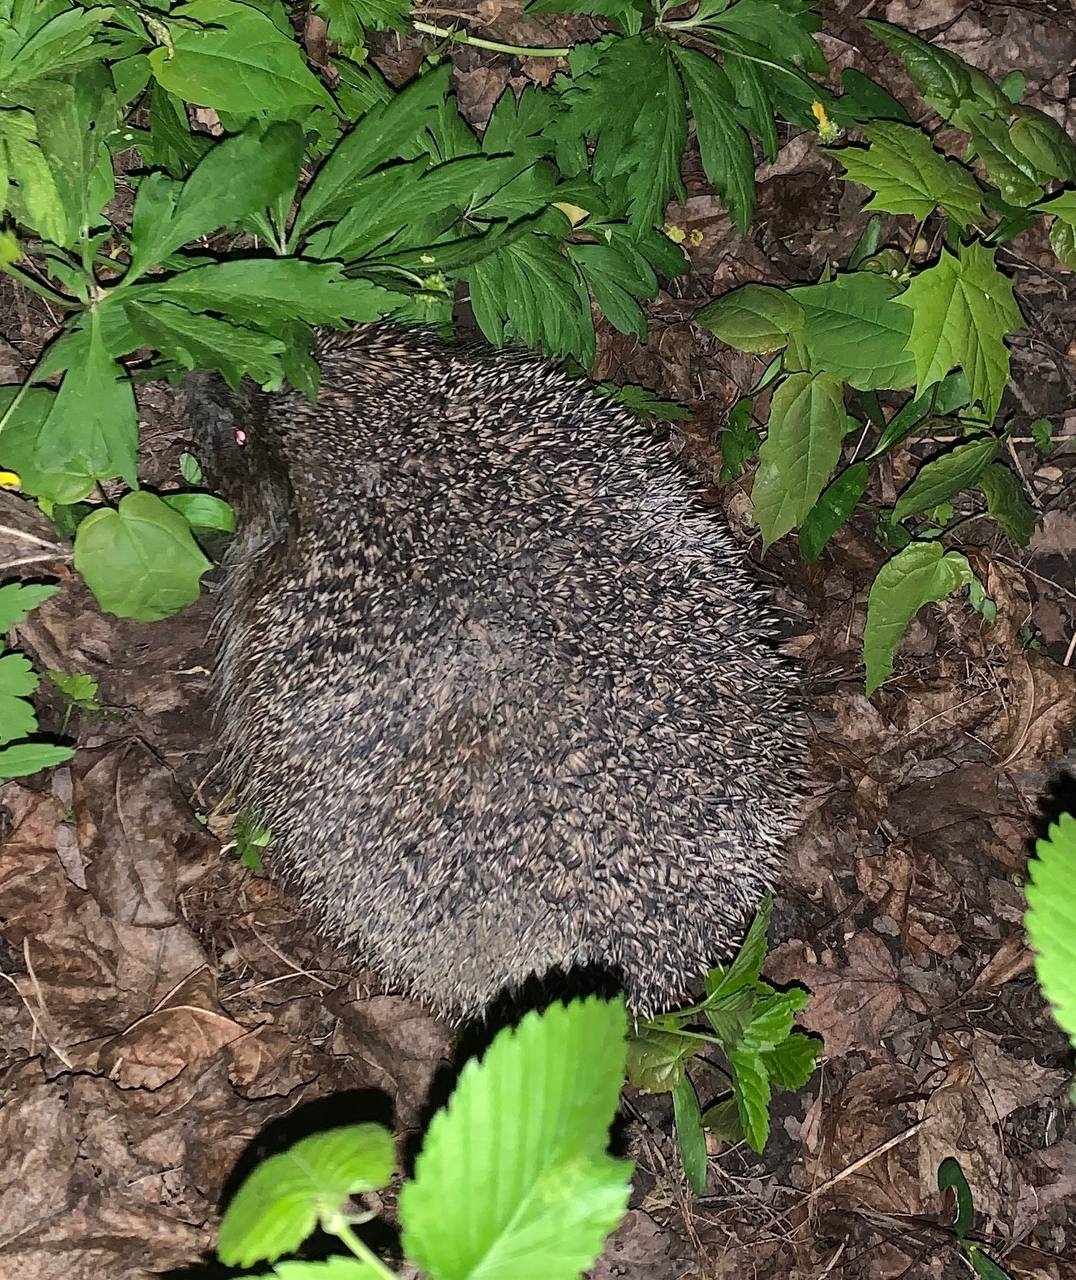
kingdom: Animalia
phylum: Chordata
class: Mammalia
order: Erinaceomorpha
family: Erinaceidae
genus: Erinaceus
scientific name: Erinaceus europaeus
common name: West european hedgehog
